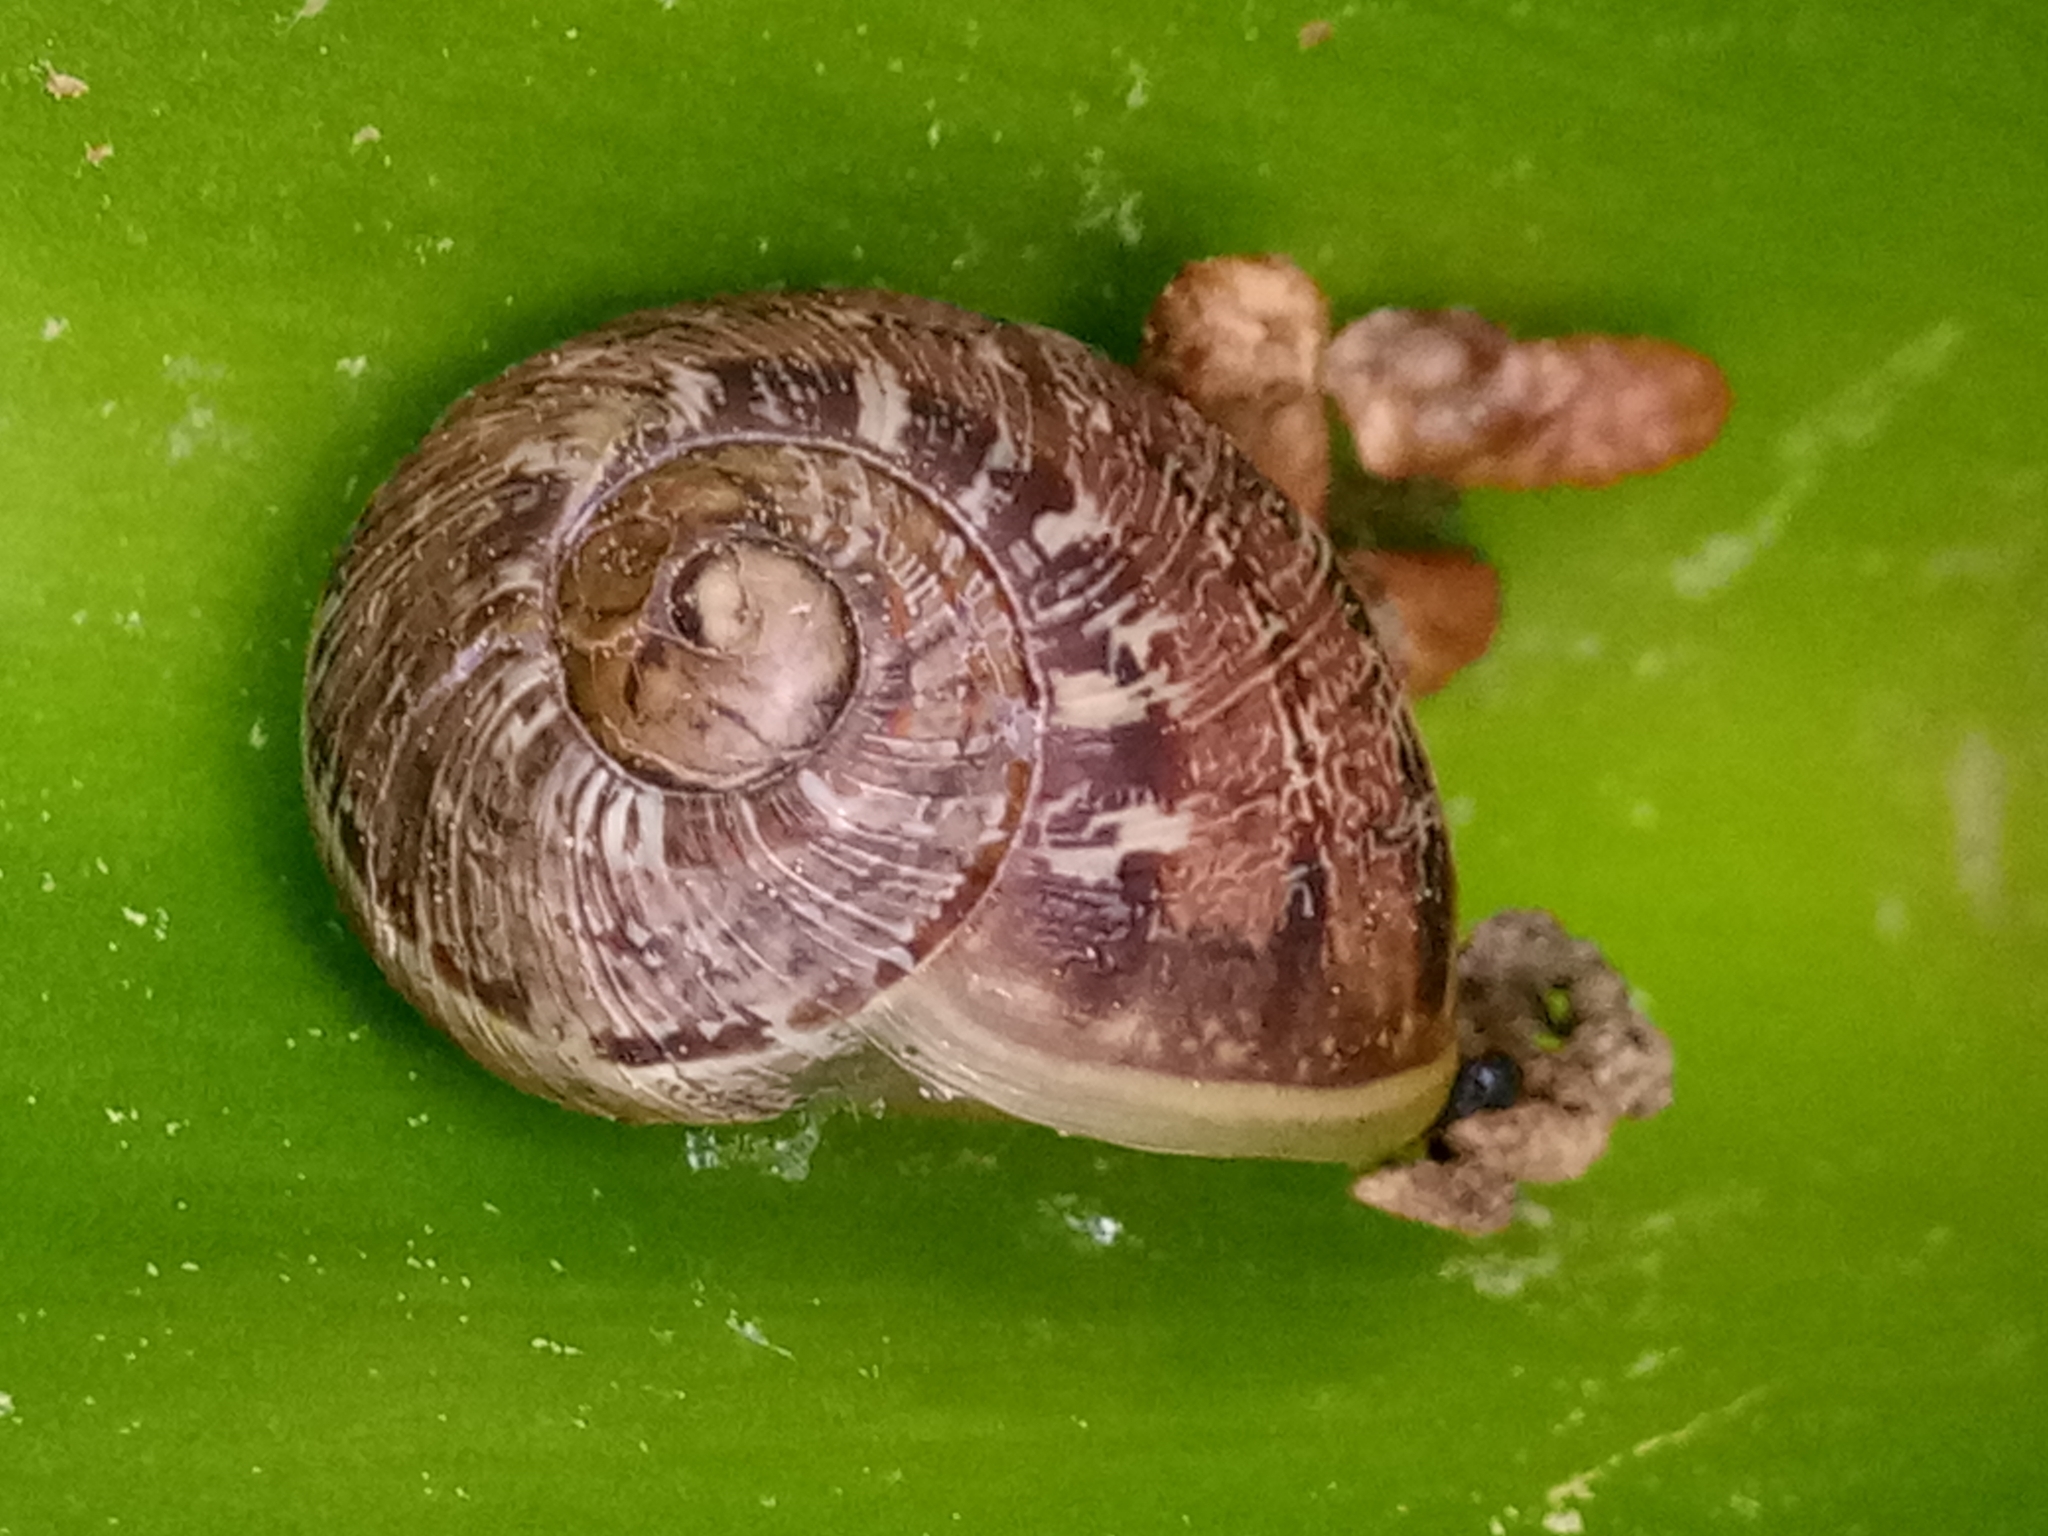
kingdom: Animalia
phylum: Mollusca
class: Gastropoda
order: Stylommatophora
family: Helicidae
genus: Cornu
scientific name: Cornu aspersum
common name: Brown garden snail
